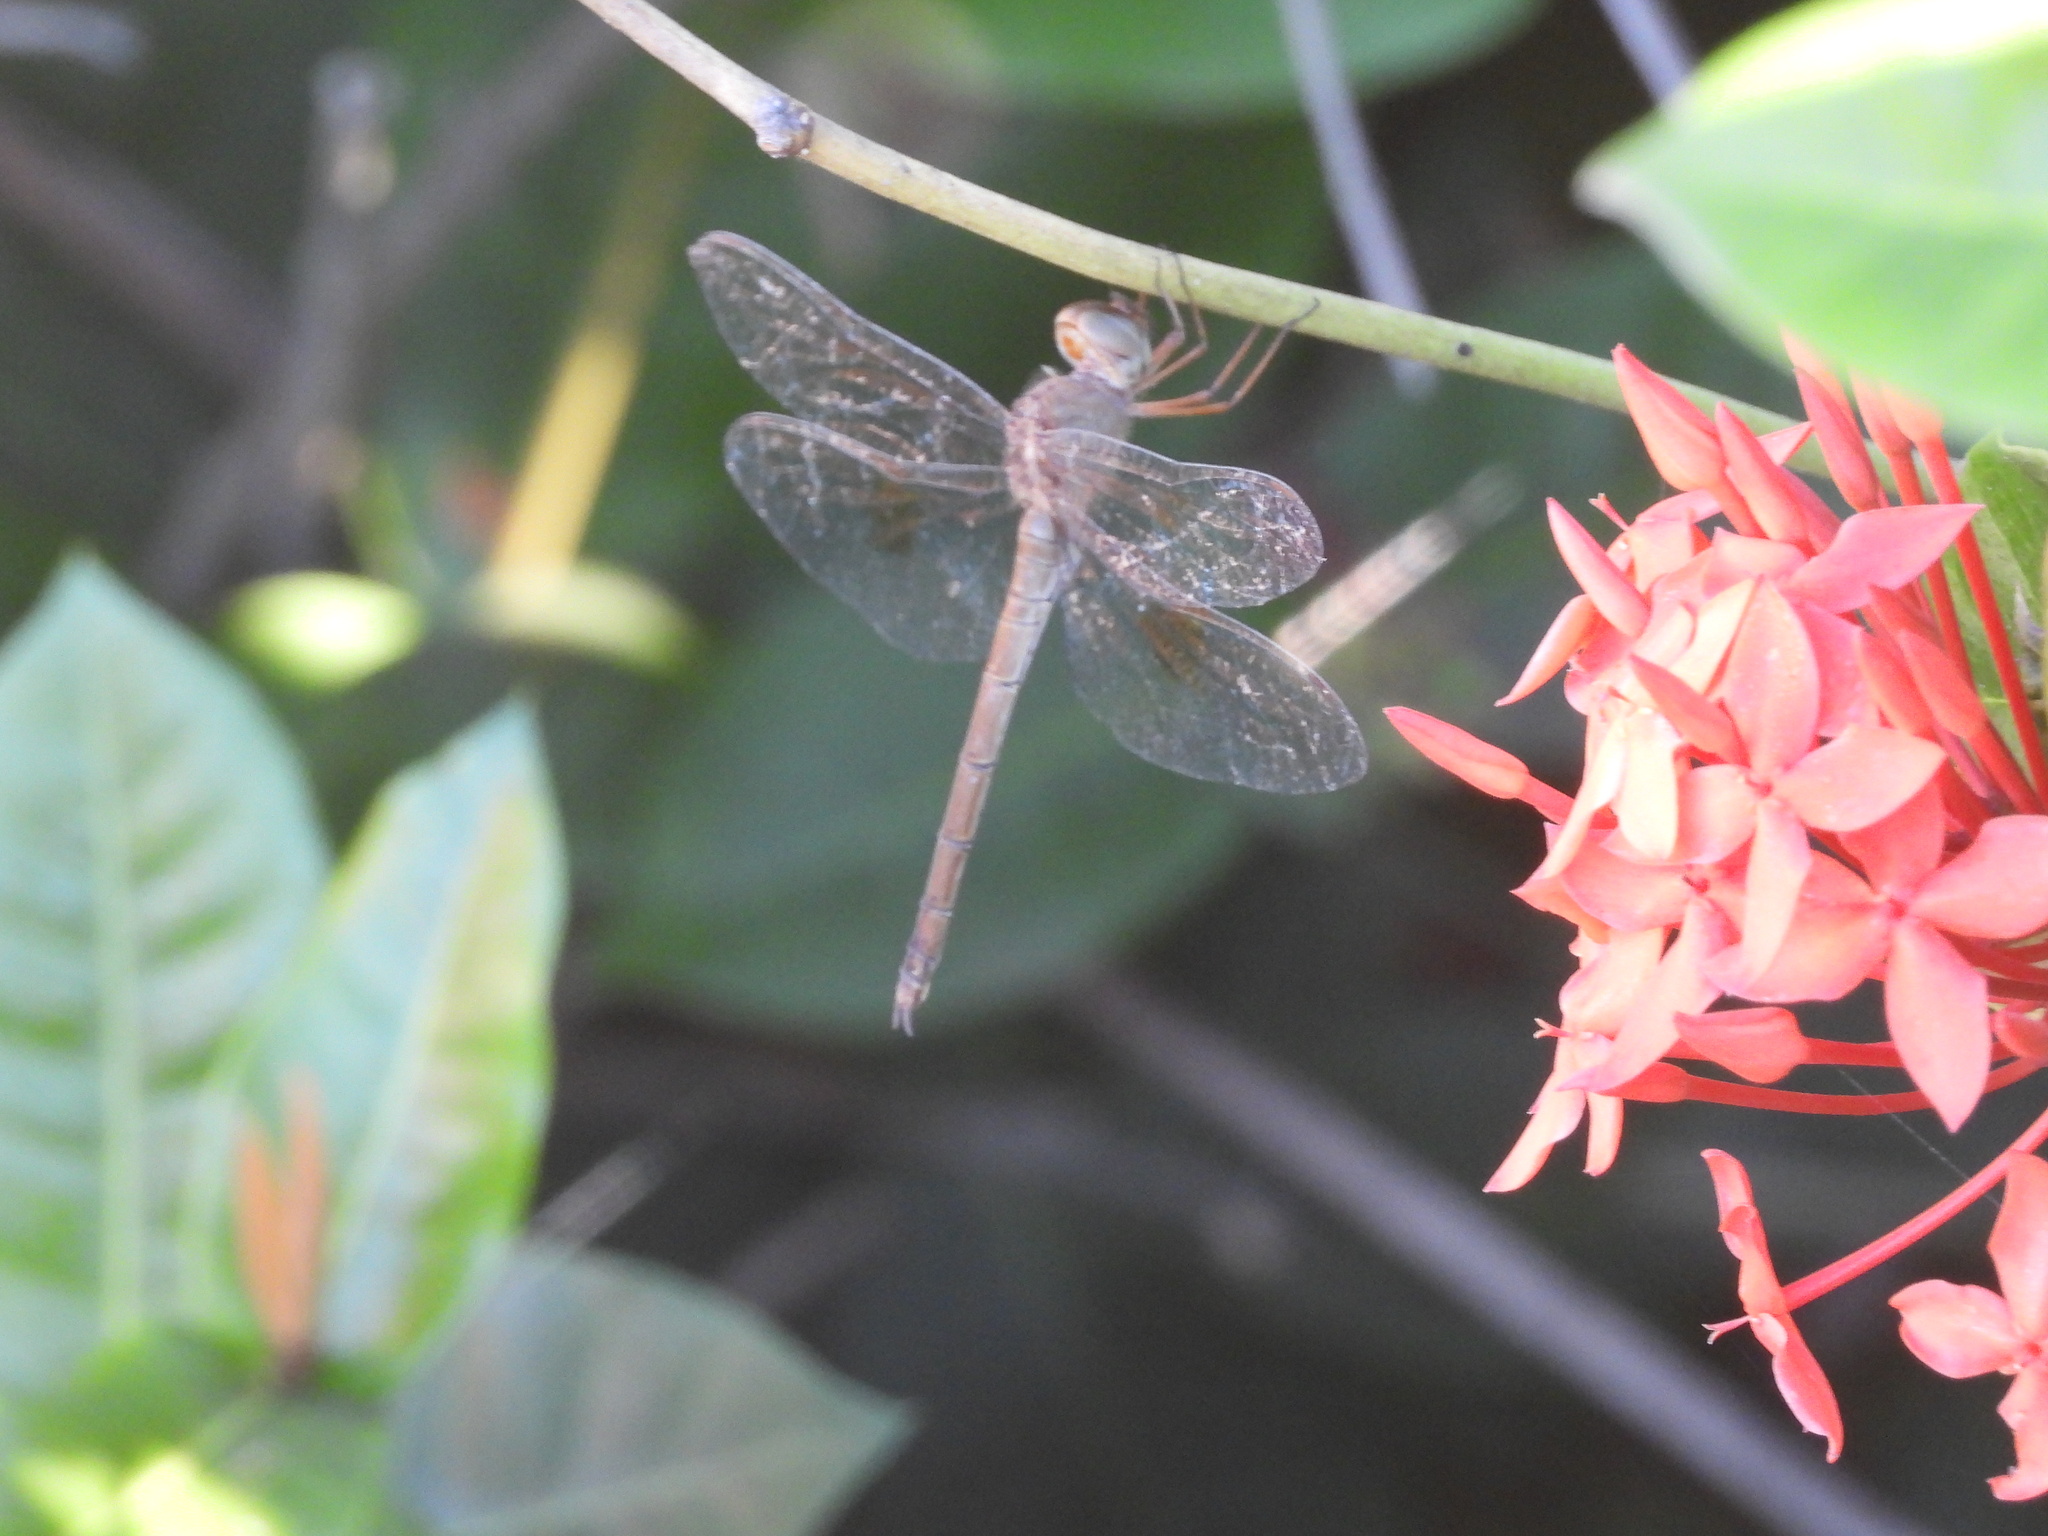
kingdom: Animalia
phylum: Arthropoda
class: Insecta
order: Odonata
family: Libellulidae
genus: Tholymis
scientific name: Tholymis citrina
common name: Evening skimmer
